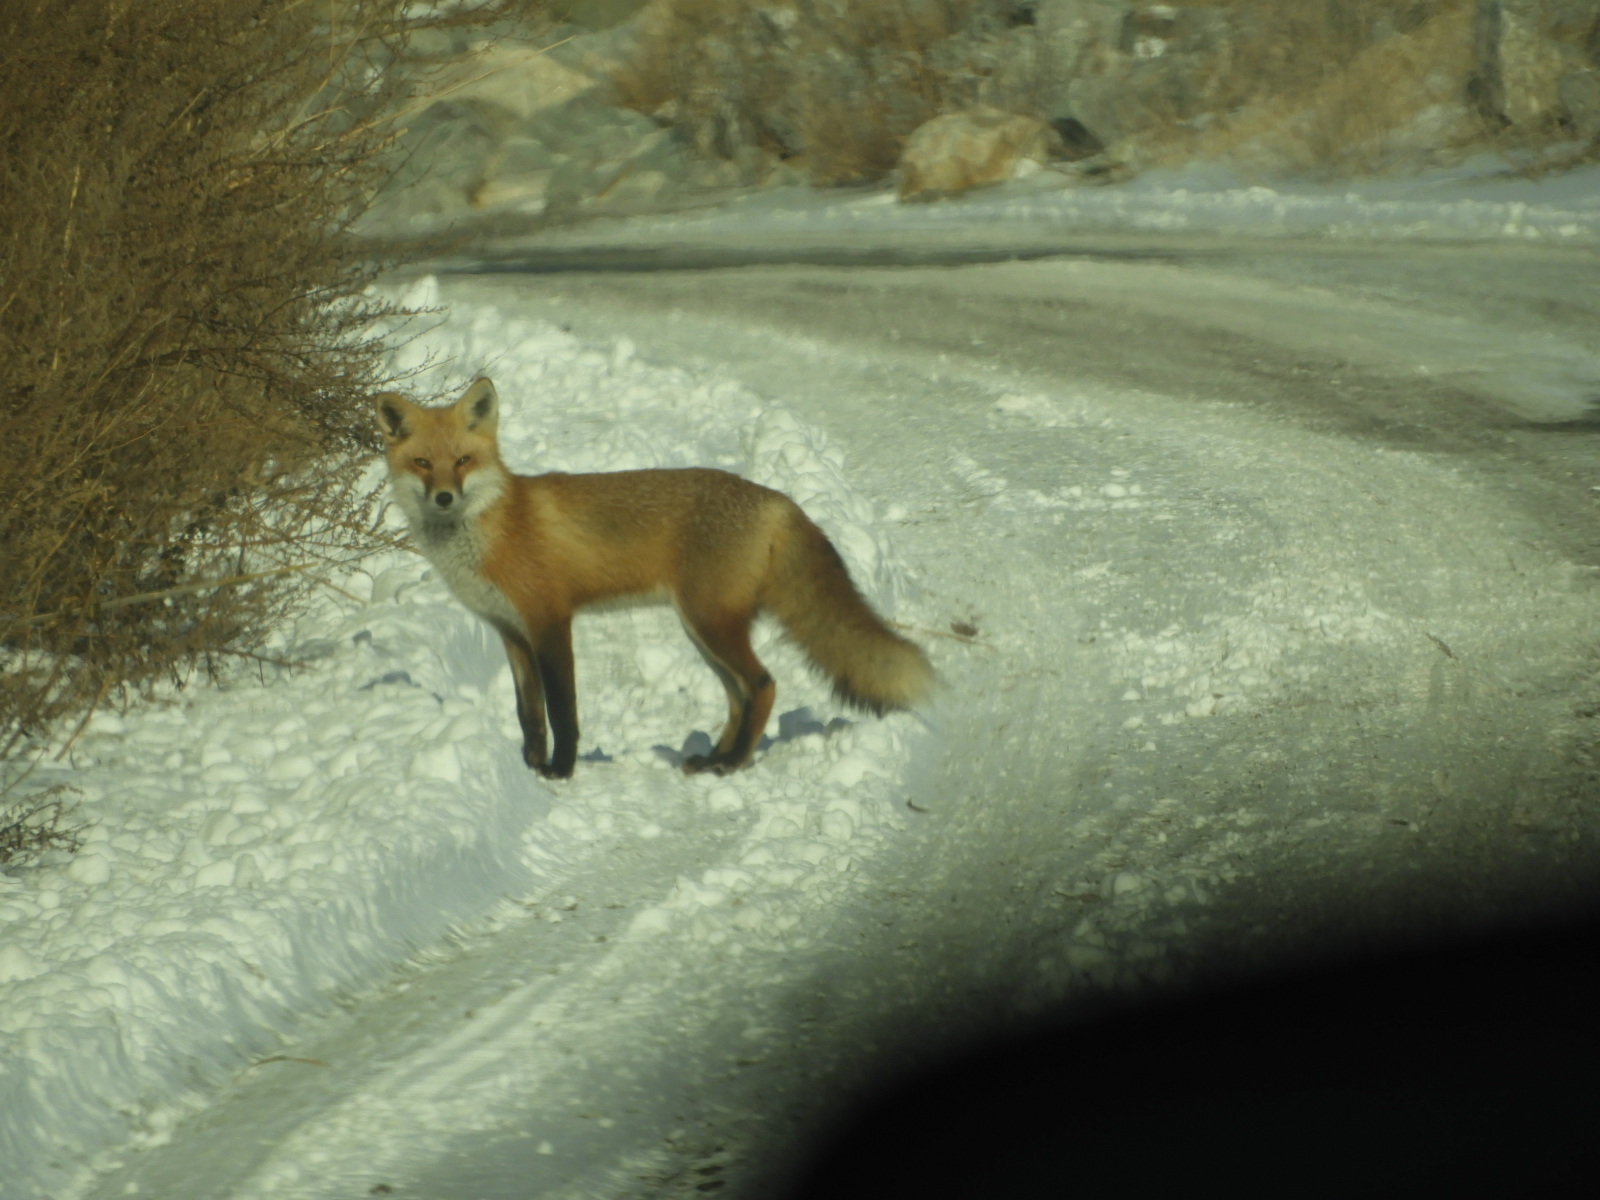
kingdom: Animalia
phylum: Chordata
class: Mammalia
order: Carnivora
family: Canidae
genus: Vulpes
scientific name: Vulpes vulpes
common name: Red fox
